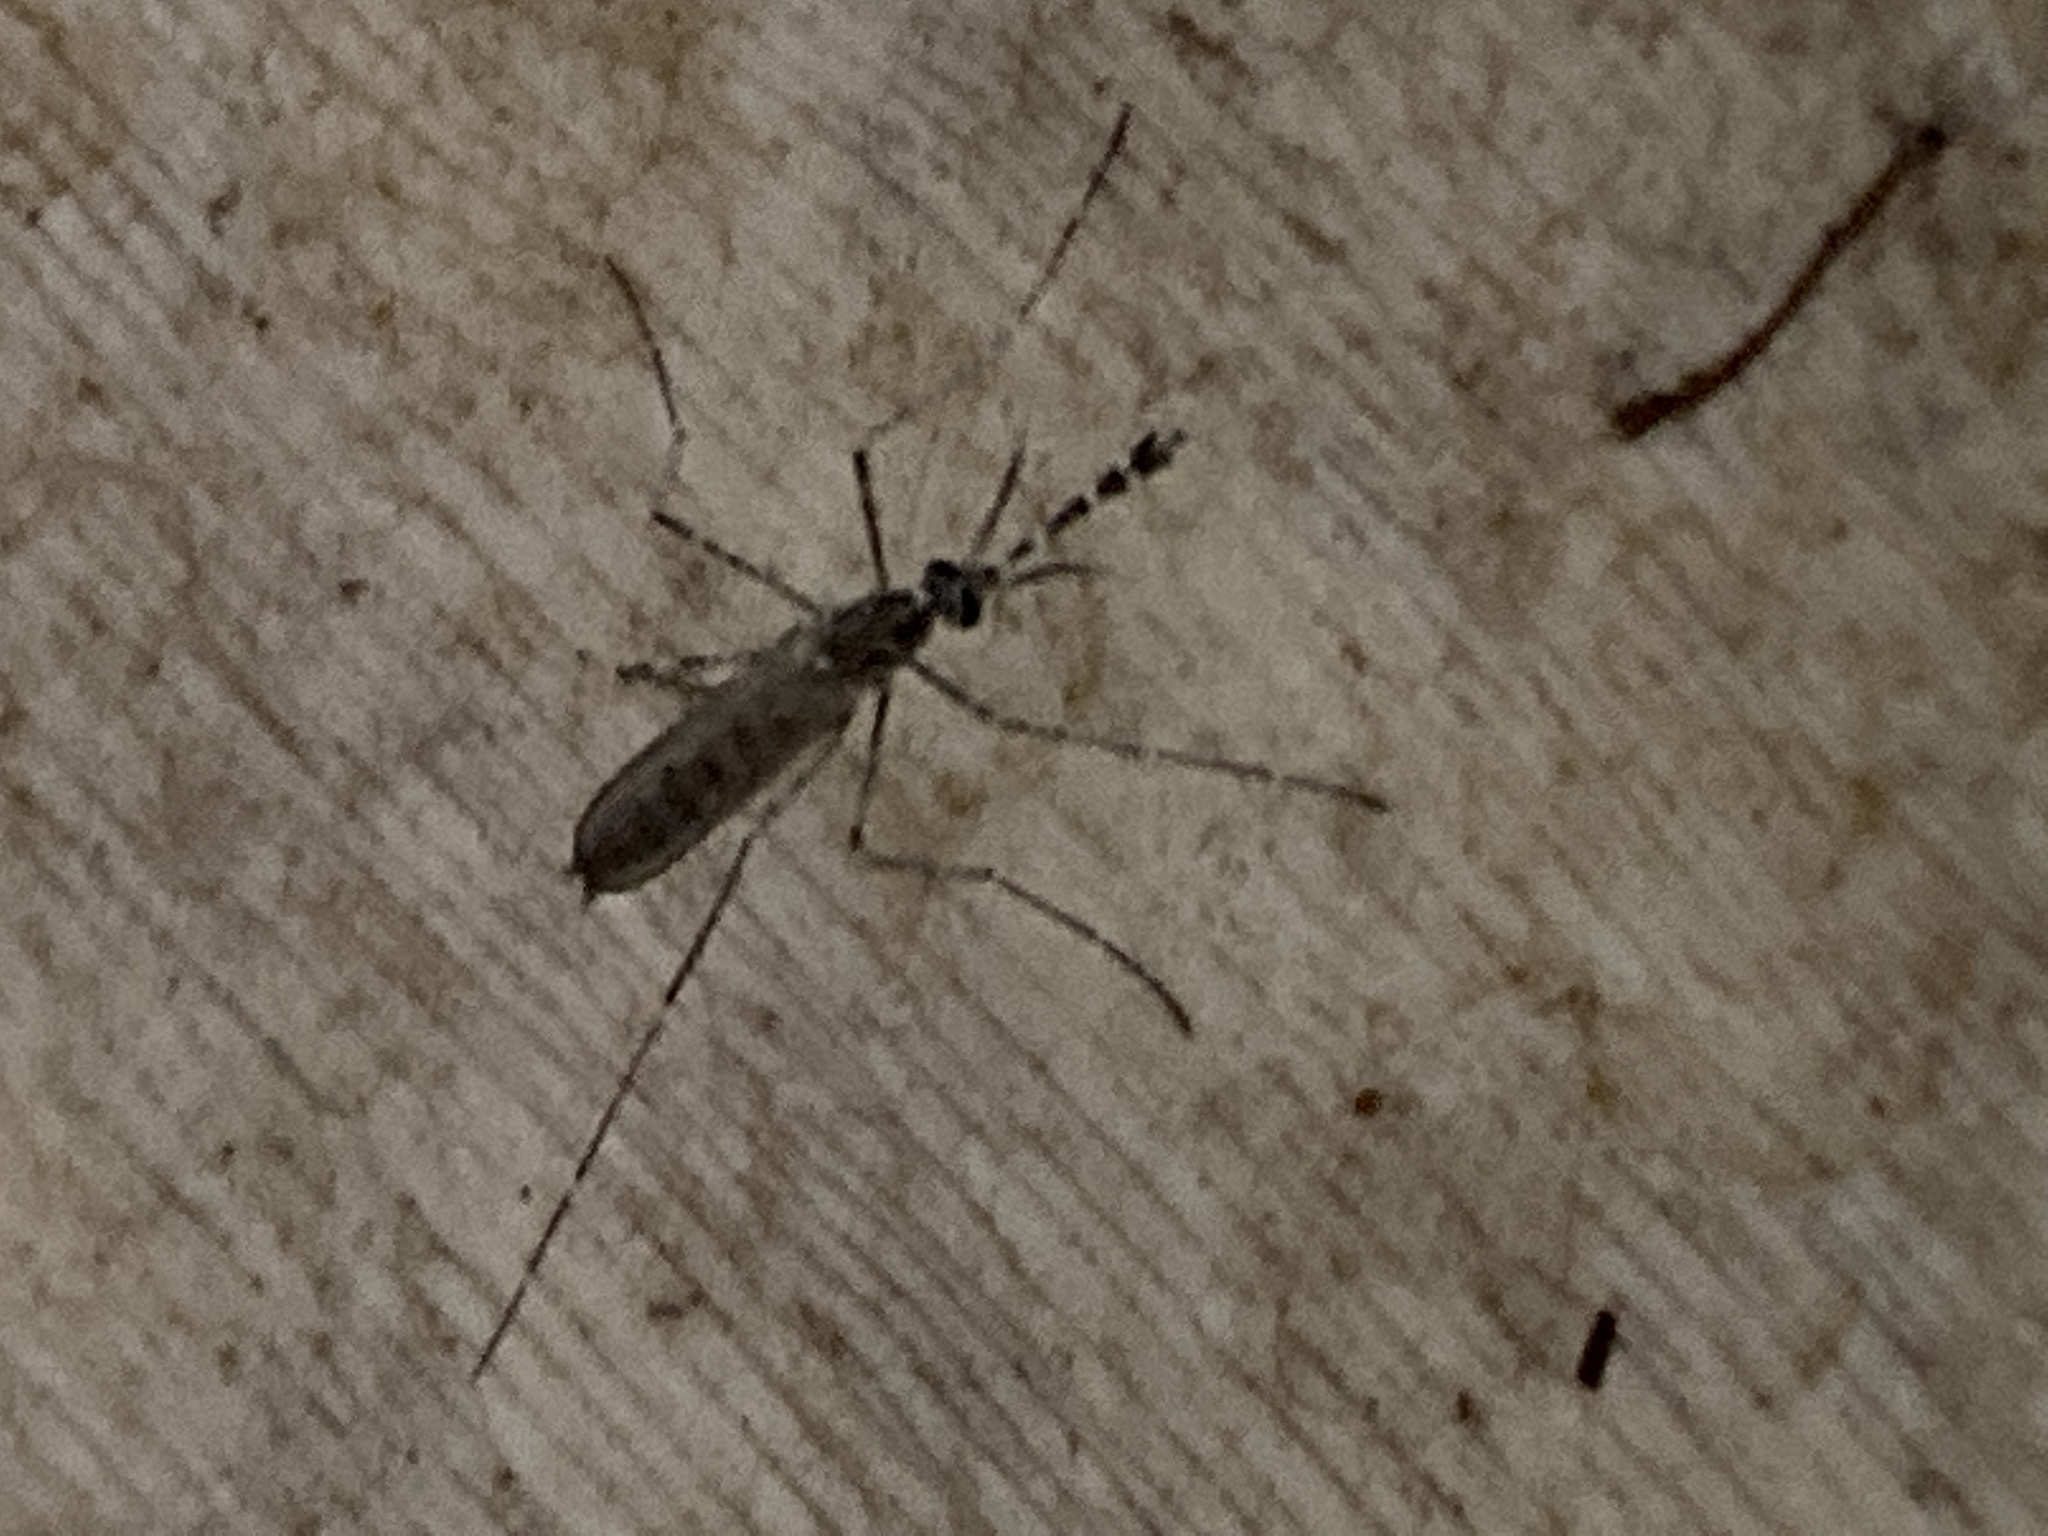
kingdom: Animalia
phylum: Arthropoda
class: Insecta
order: Diptera
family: Culicidae
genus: Culiseta
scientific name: Culiseta longiareolata
